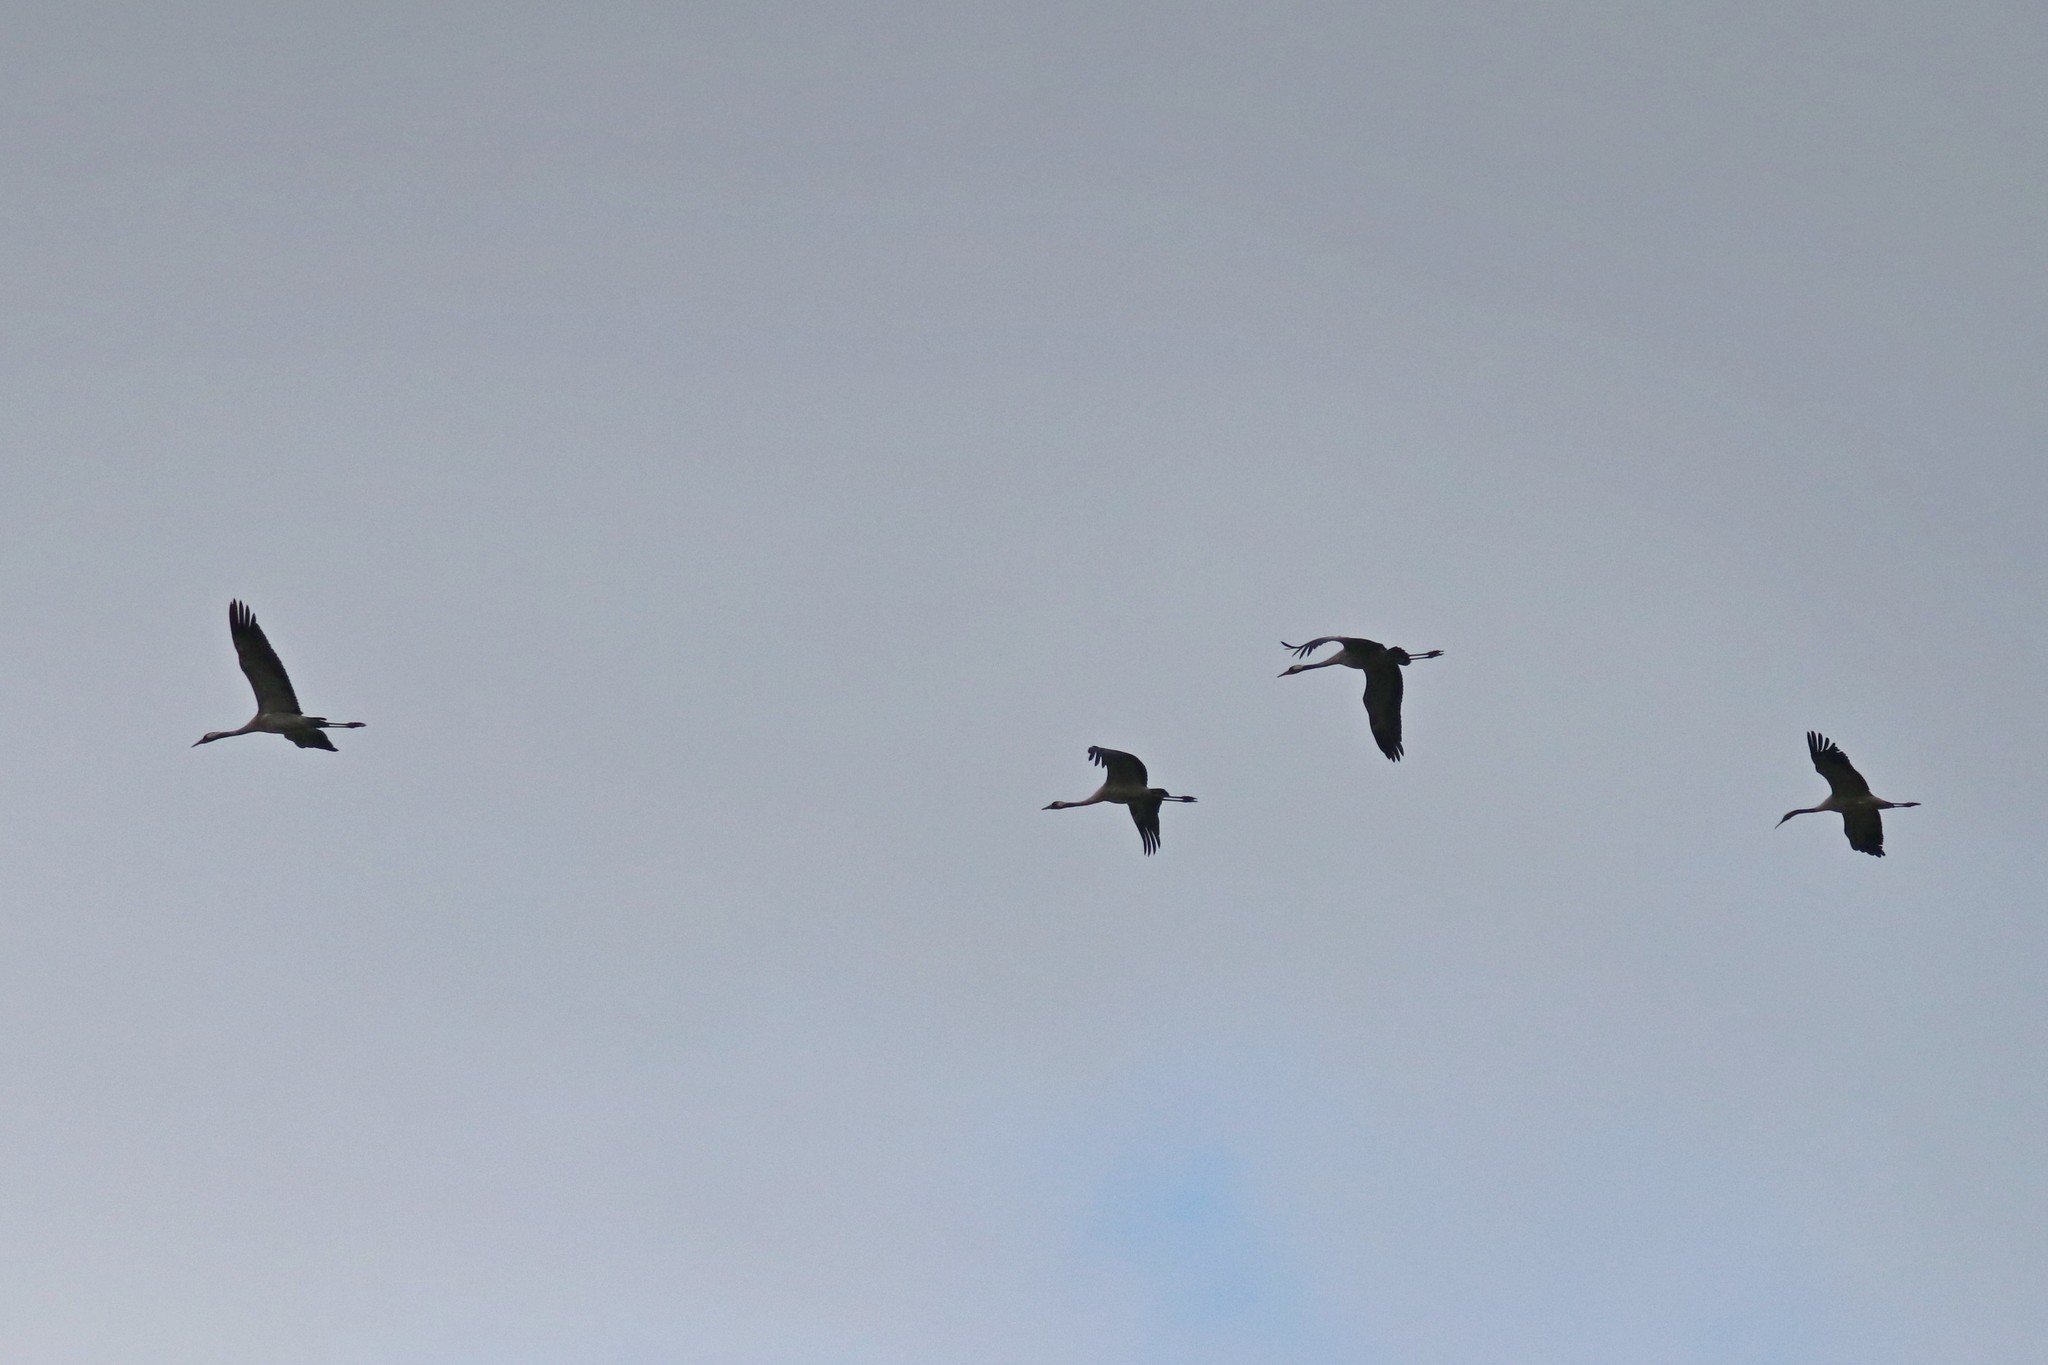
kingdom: Animalia
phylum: Chordata
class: Aves
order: Gruiformes
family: Gruidae
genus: Grus
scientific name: Grus grus
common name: Common crane
